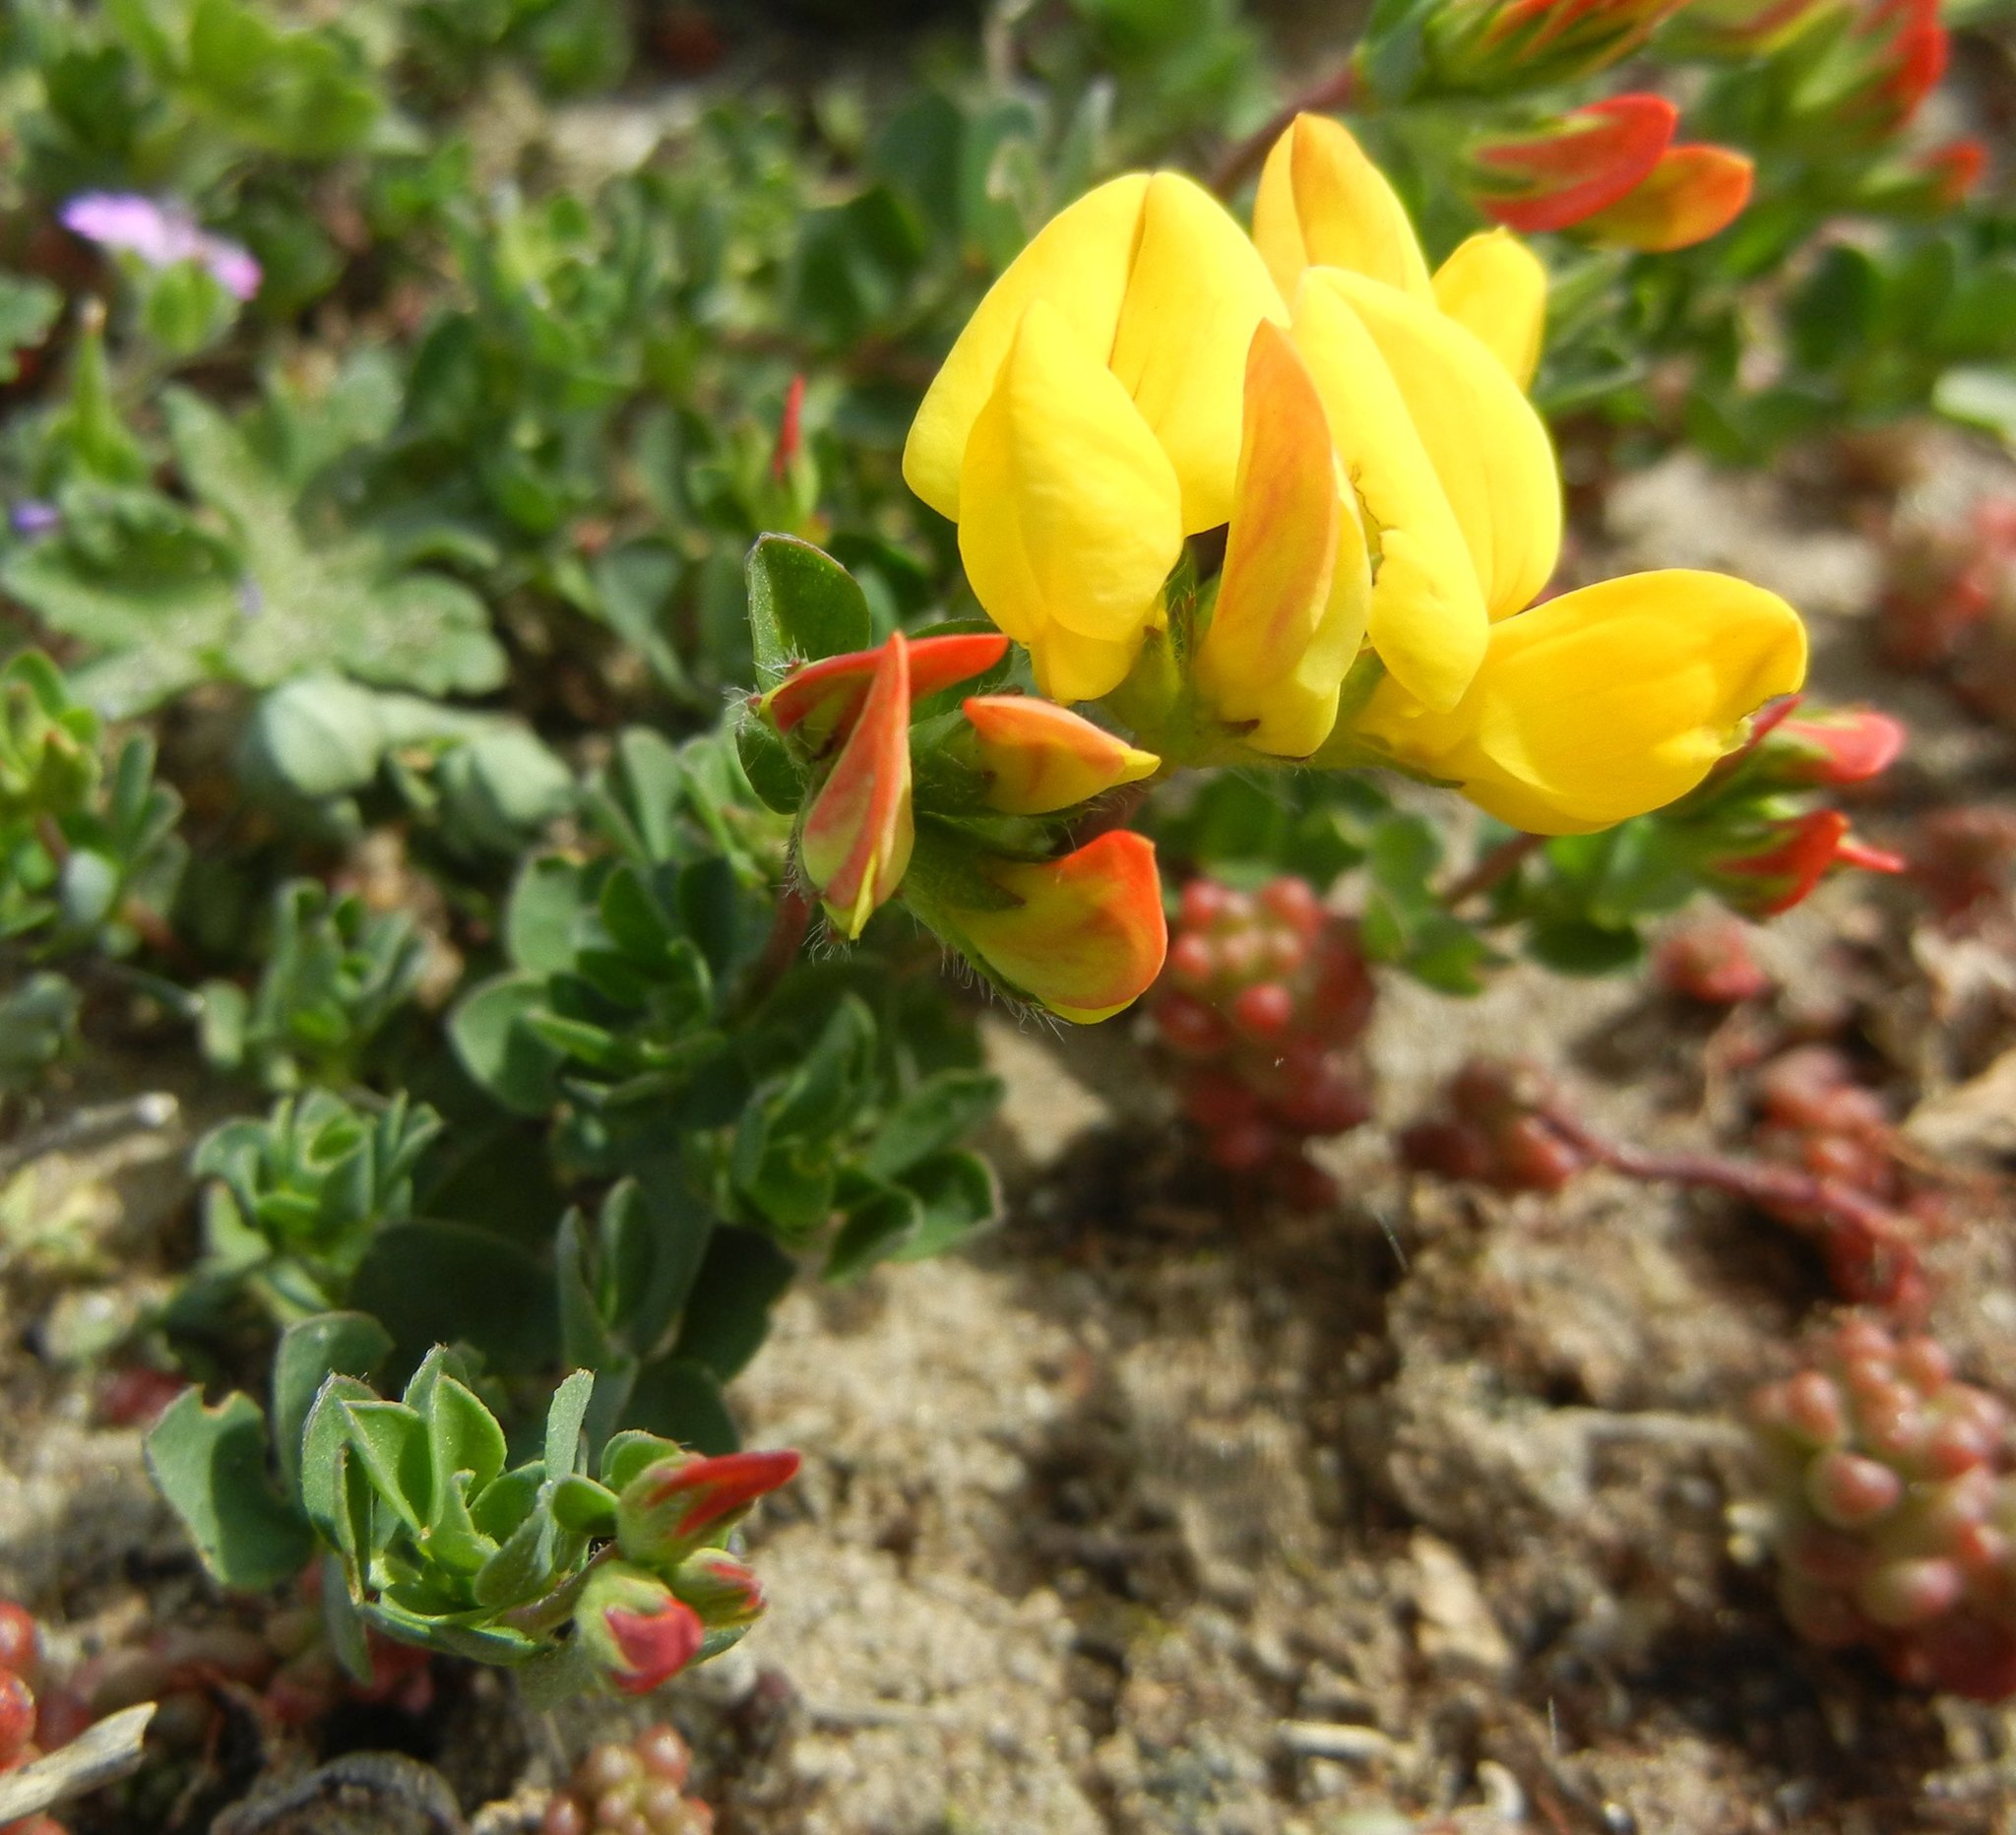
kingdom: Plantae
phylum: Tracheophyta
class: Magnoliopsida
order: Fabales
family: Fabaceae
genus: Lotus
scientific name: Lotus corniculatus
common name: Common bird's-foot-trefoil
